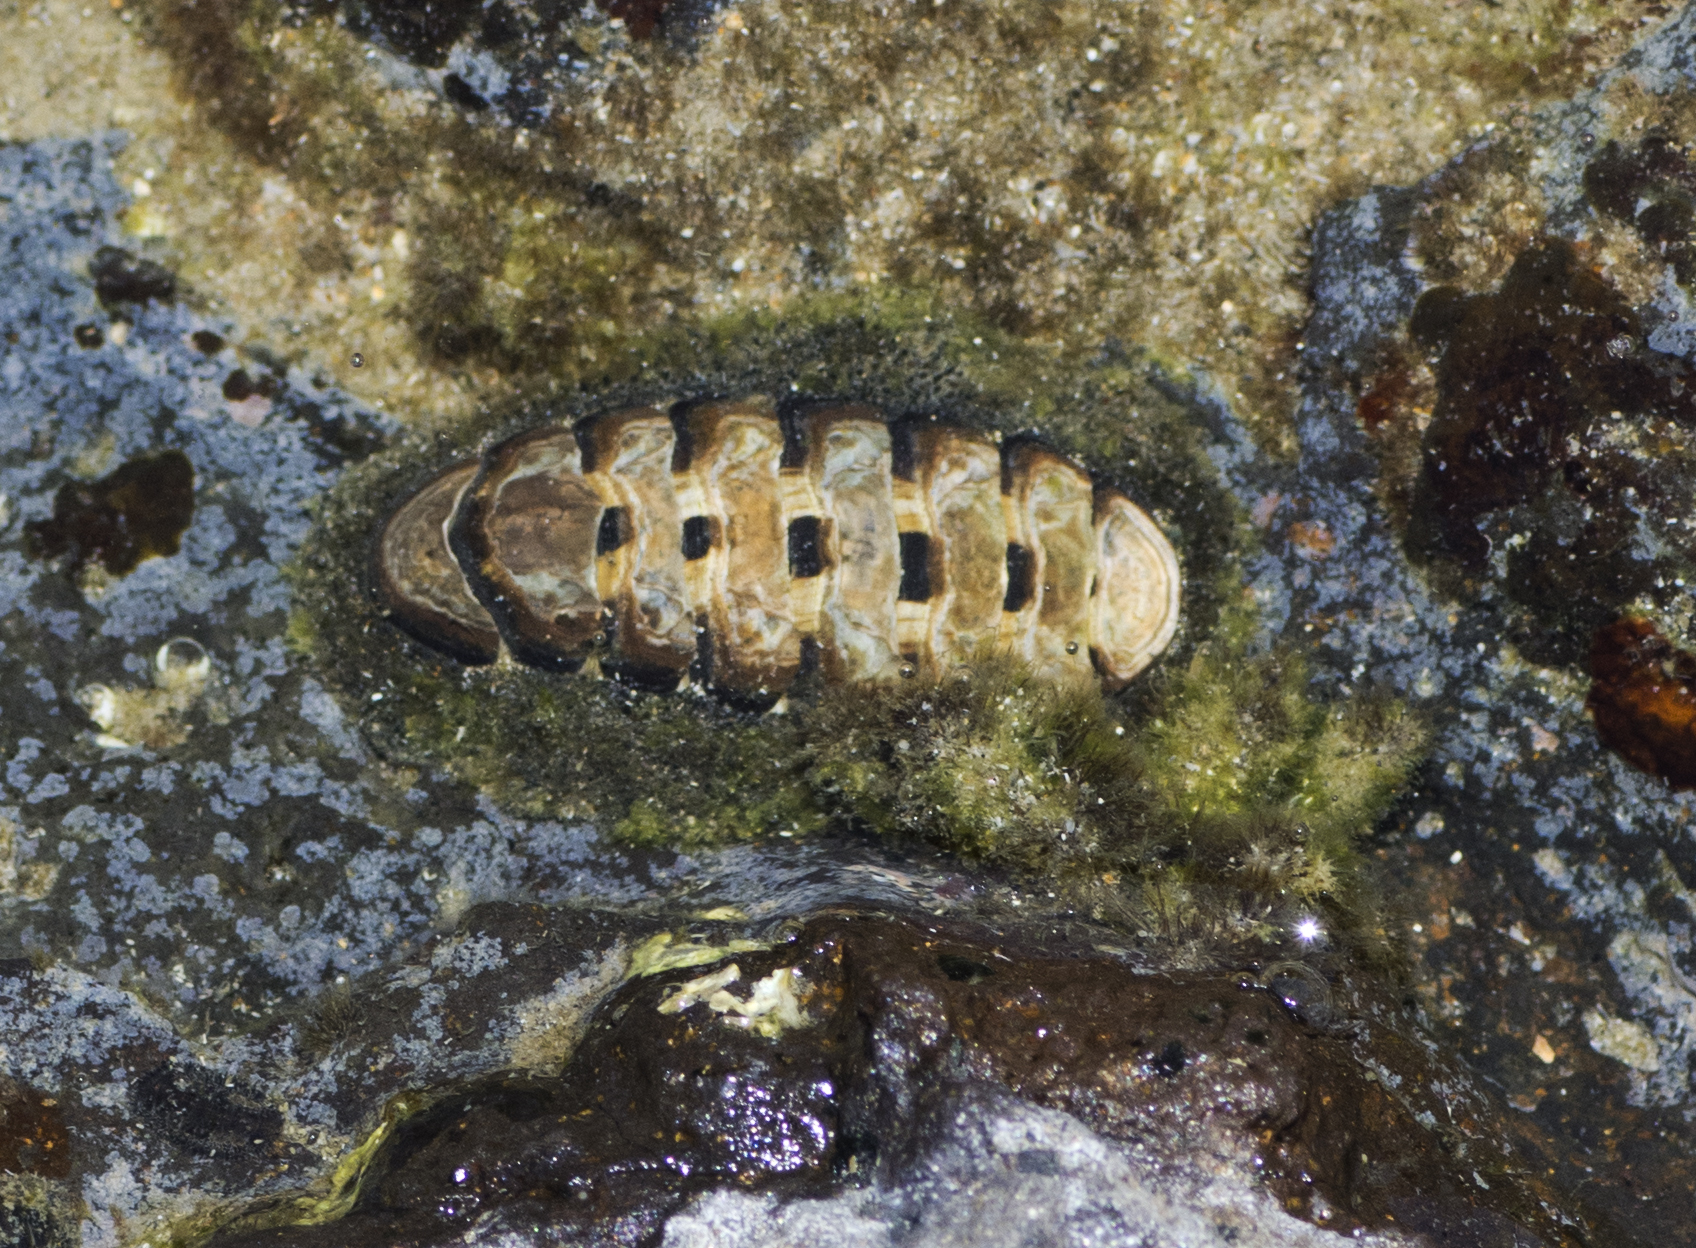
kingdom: Animalia
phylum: Mollusca
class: Polyplacophora
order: Chitonida
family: Chitonidae
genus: Acanthopleura
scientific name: Acanthopleura gemmata
